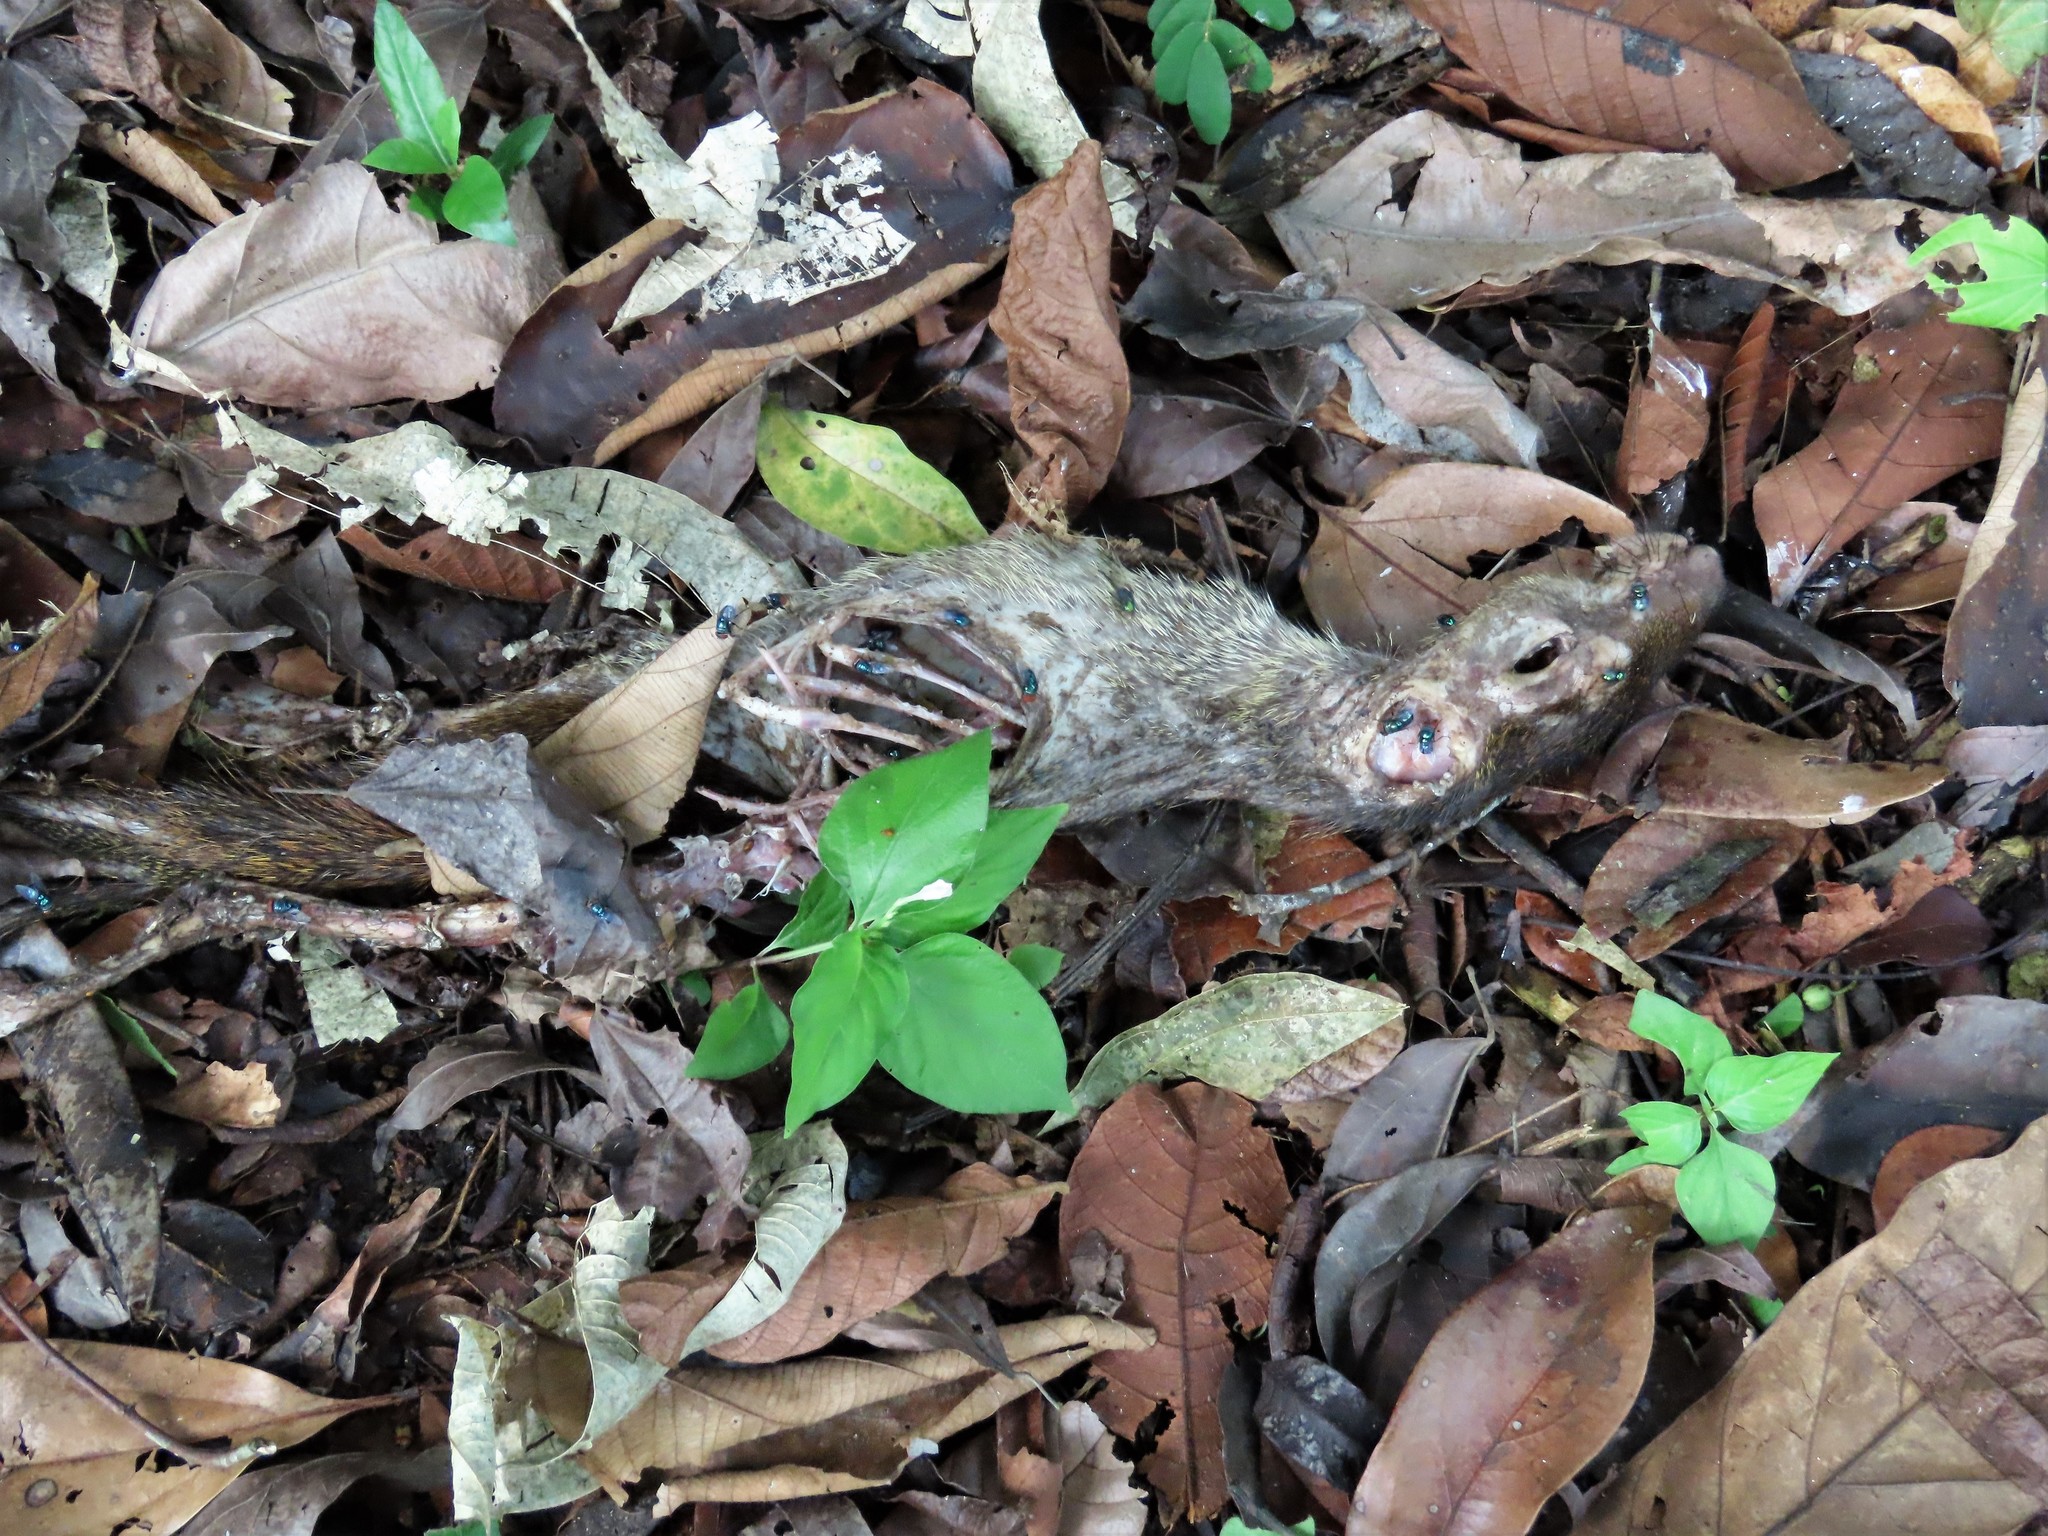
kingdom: Animalia
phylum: Chordata
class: Mammalia
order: Rodentia
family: Dasyproctidae
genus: Dasyprocta
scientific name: Dasyprocta punctata
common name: Central american agouti
